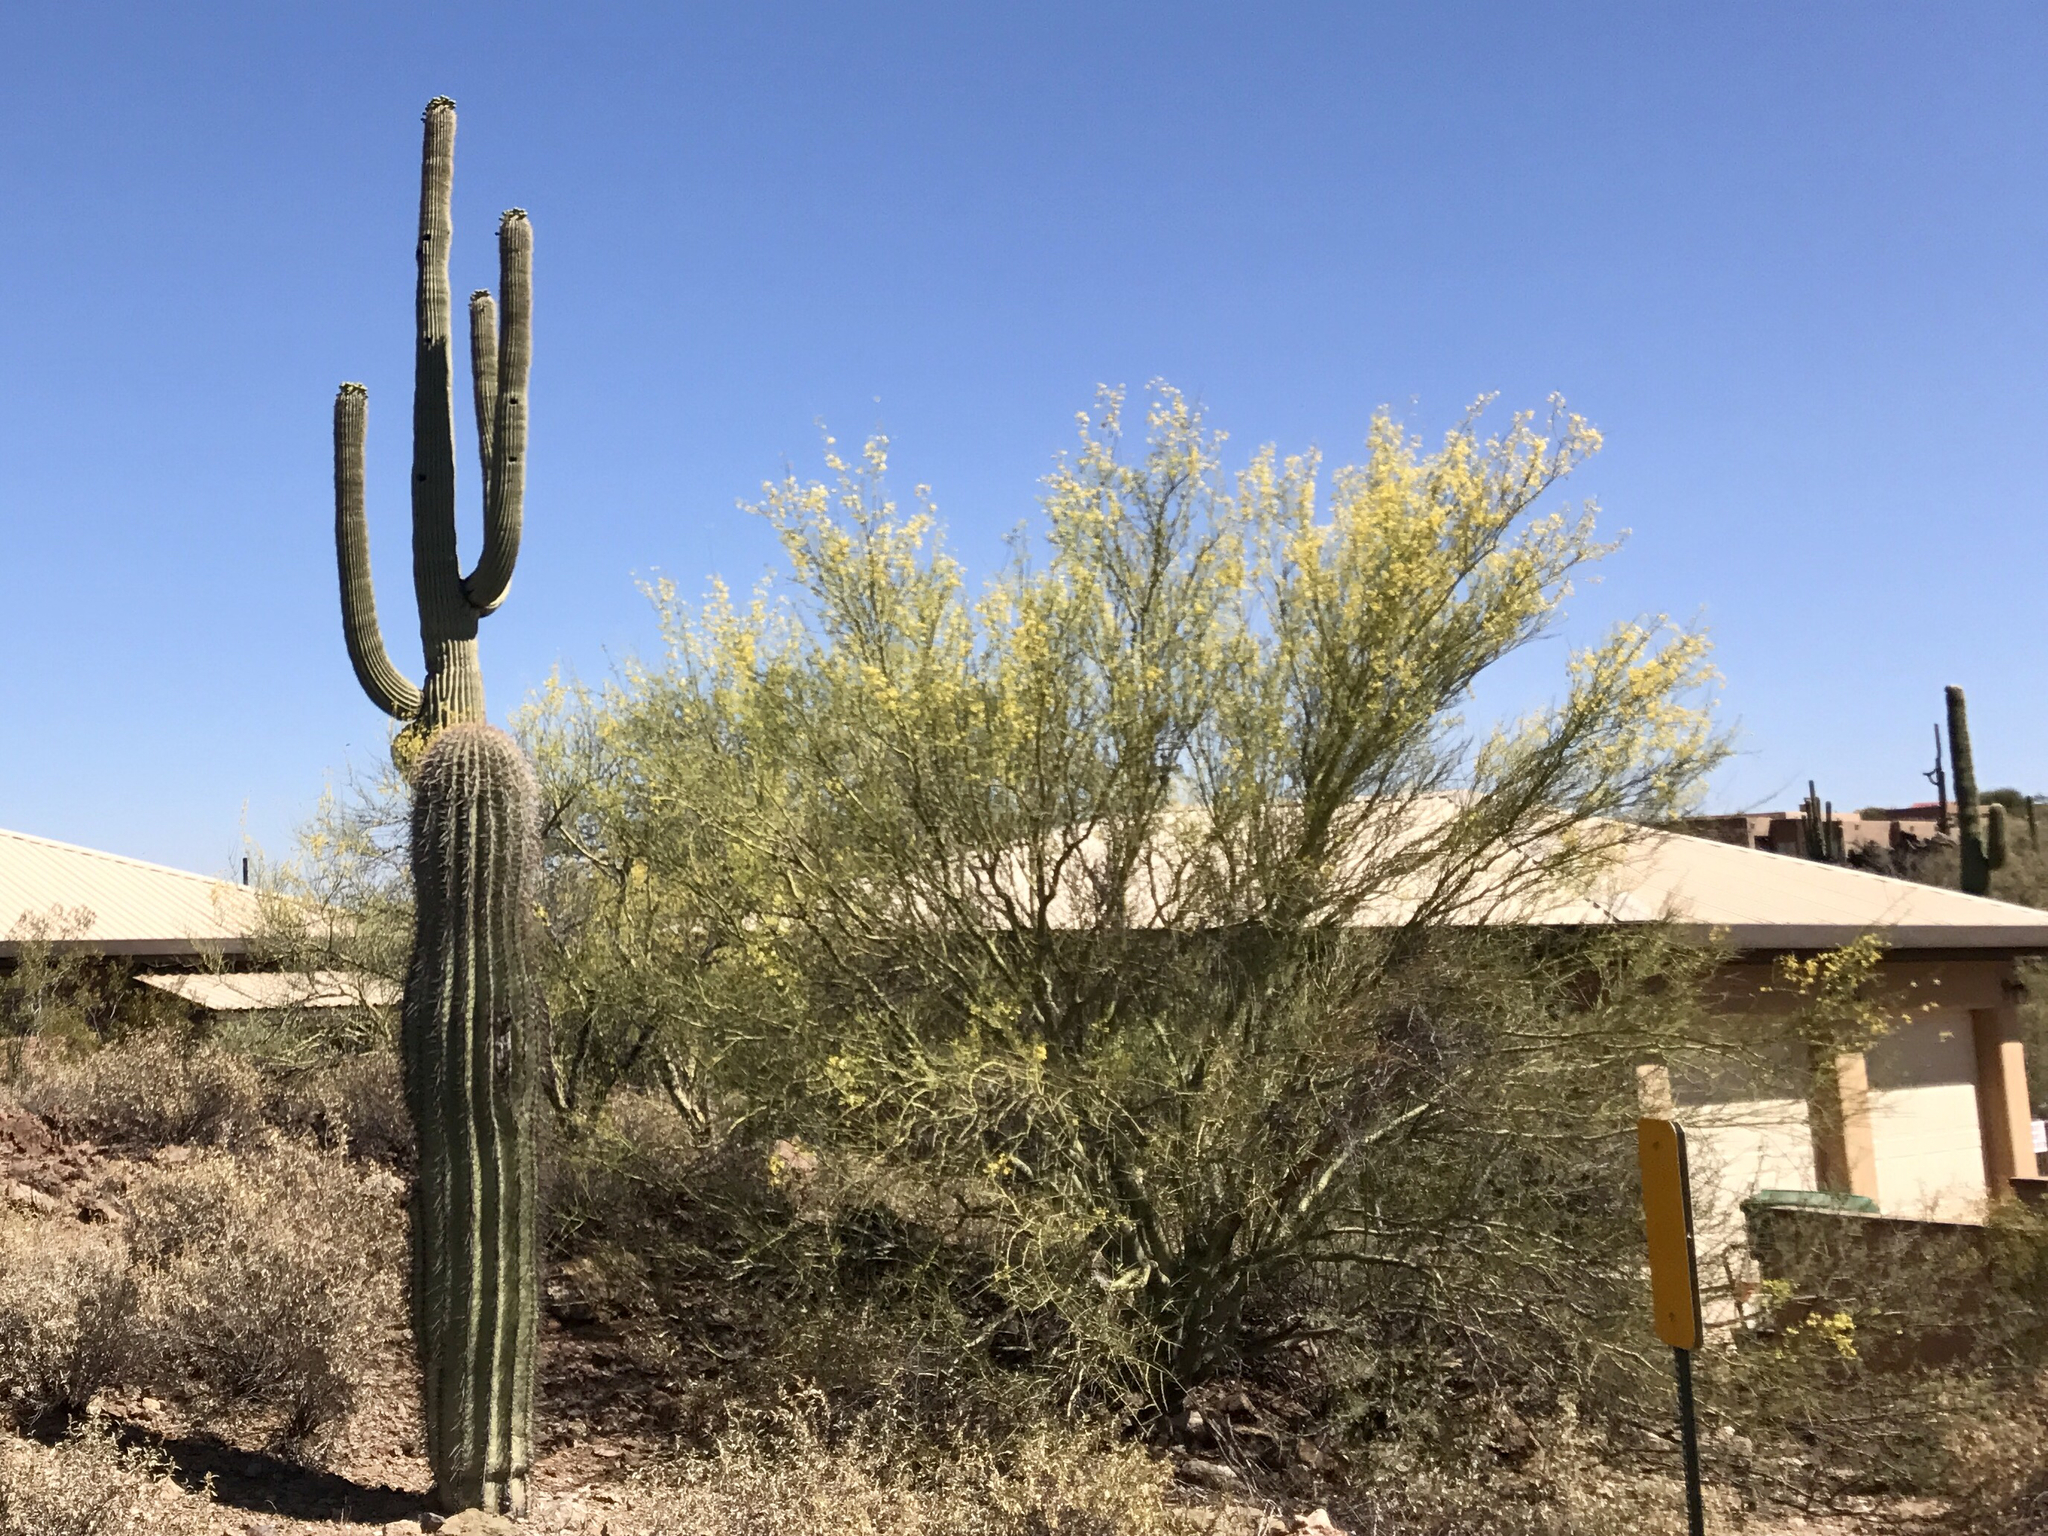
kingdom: Plantae
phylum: Tracheophyta
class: Magnoliopsida
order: Caryophyllales
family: Cactaceae
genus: Carnegiea
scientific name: Carnegiea gigantea
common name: Saguaro
